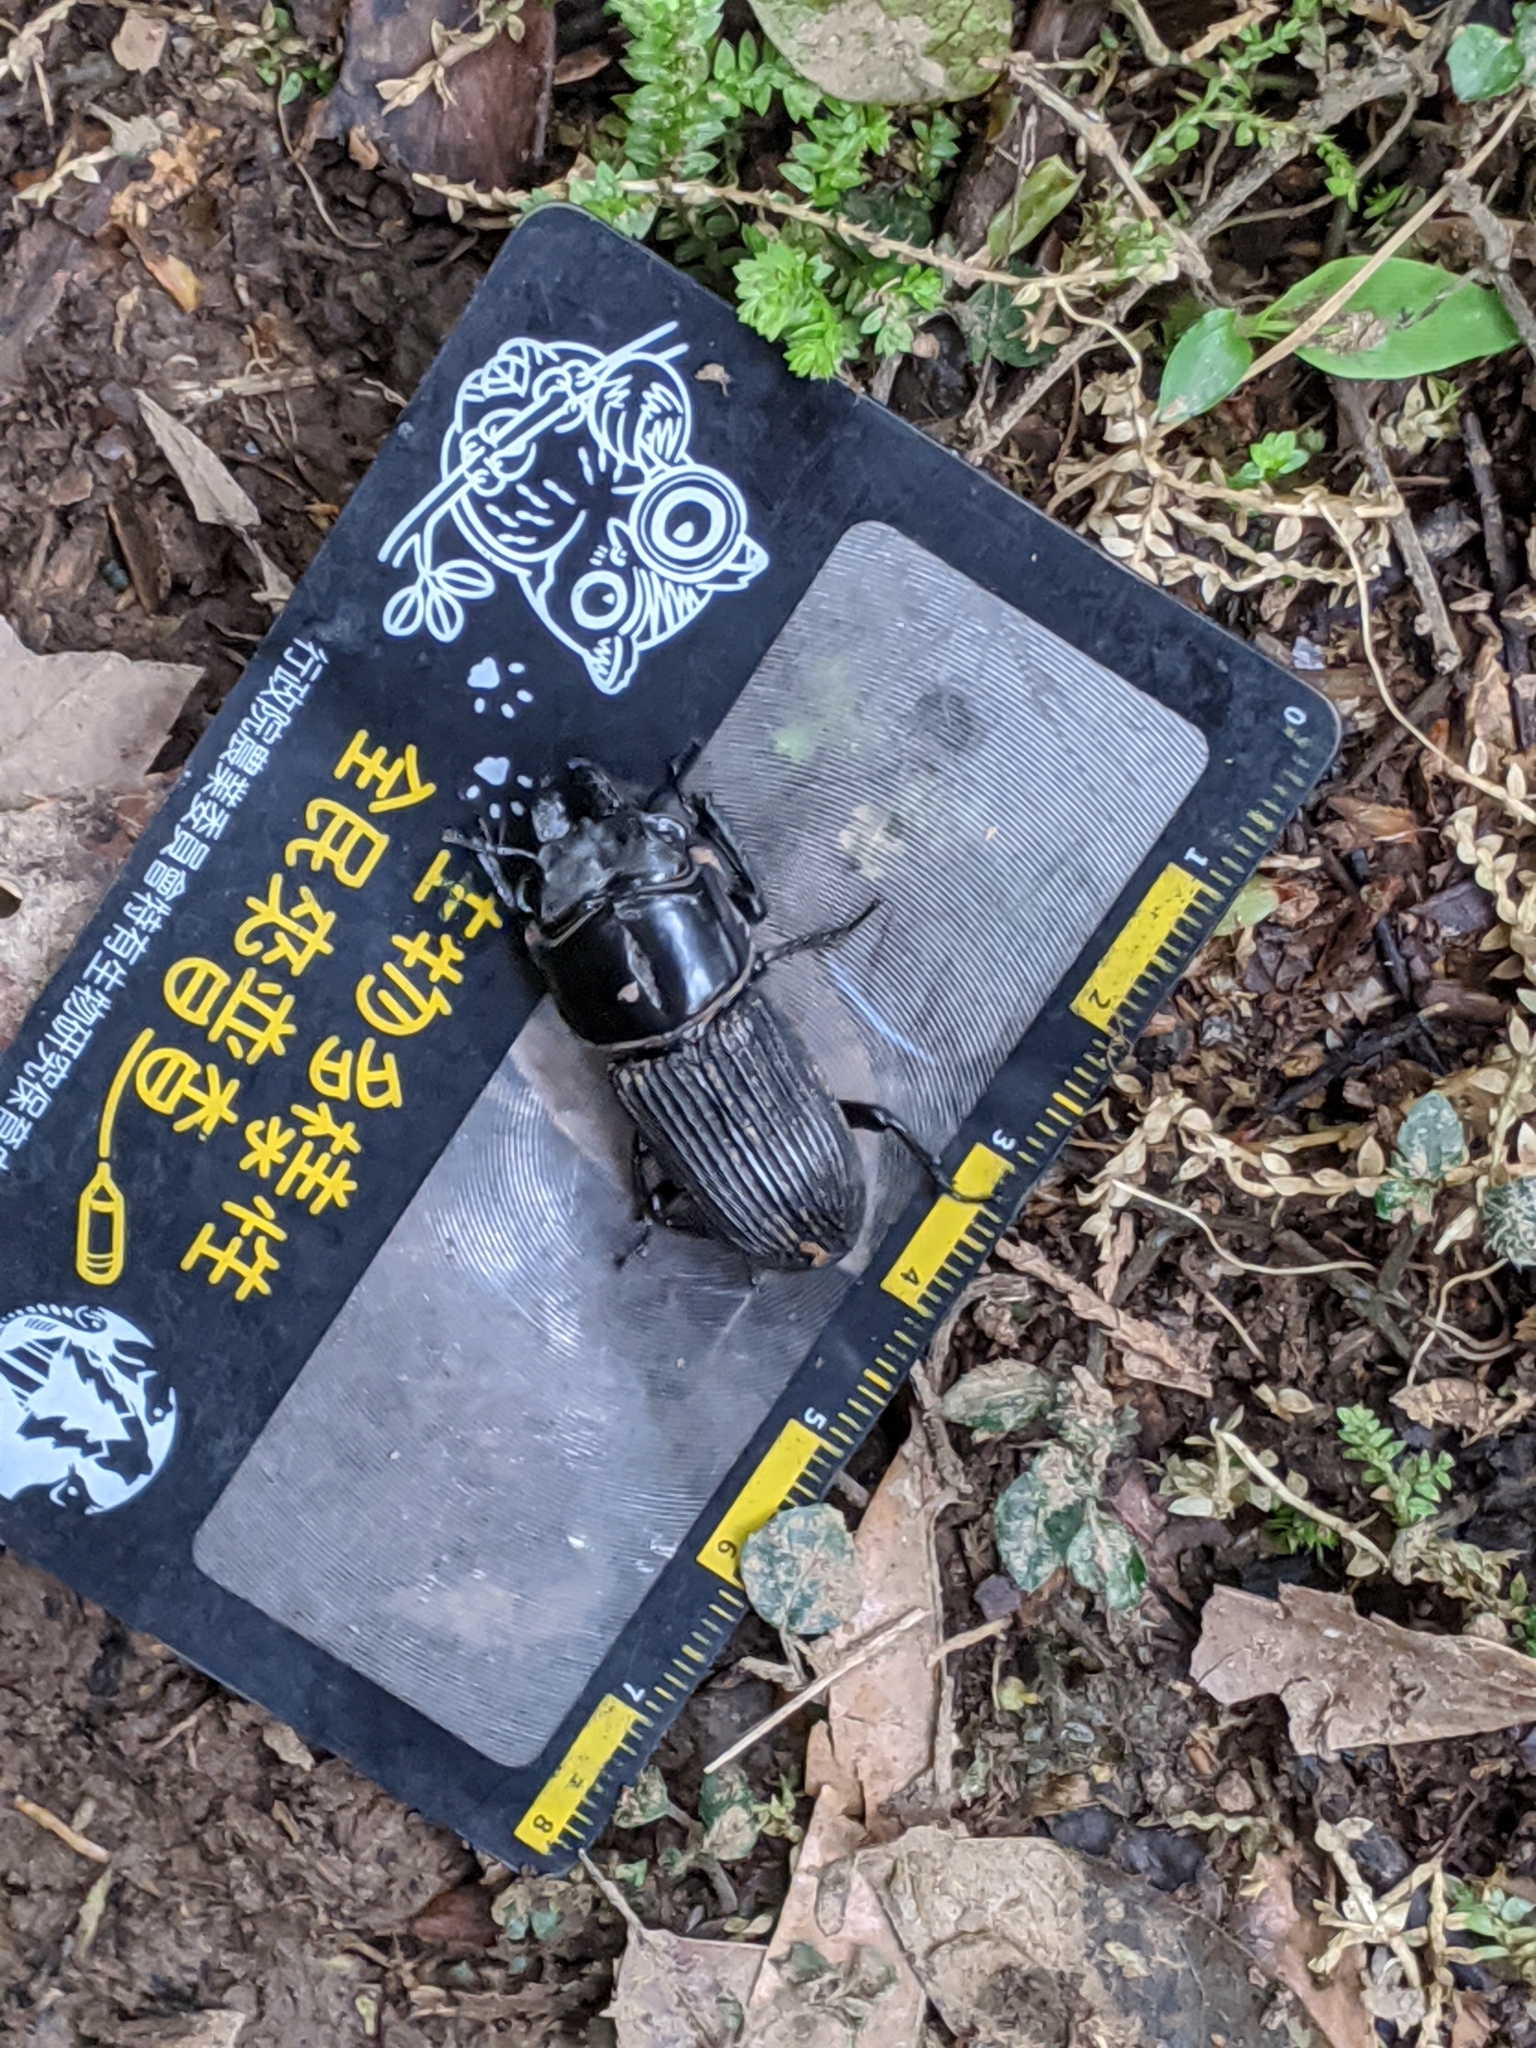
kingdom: Animalia
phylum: Arthropoda
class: Insecta
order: Coleoptera
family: Lucanidae
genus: Nigidionus
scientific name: Nigidionus parryi
